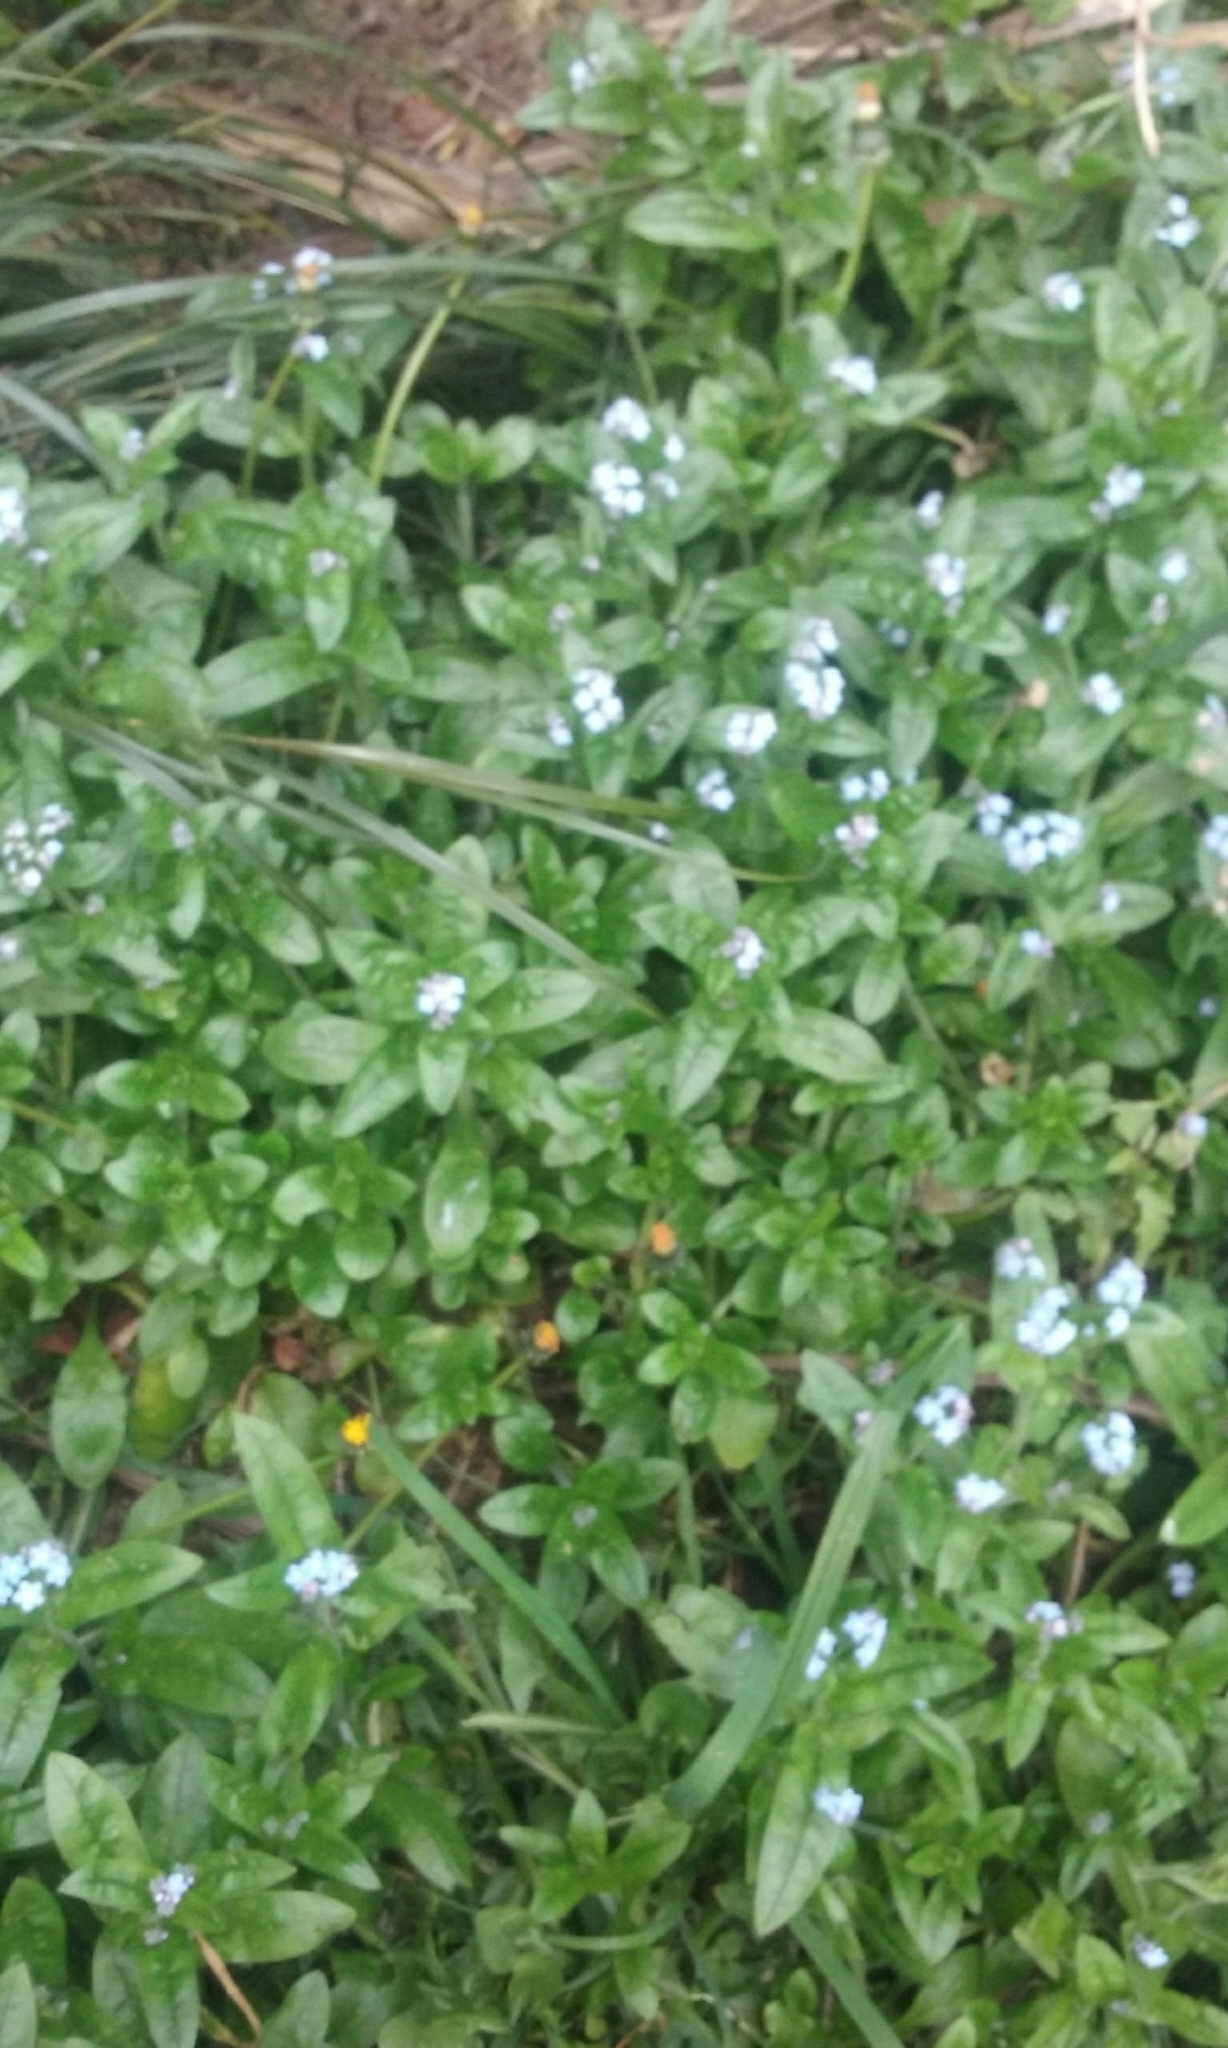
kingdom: Plantae
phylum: Tracheophyta
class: Magnoliopsida
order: Boraginales
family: Boraginaceae
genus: Myosotis
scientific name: Myosotis sylvatica
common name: Wood forget-me-not
